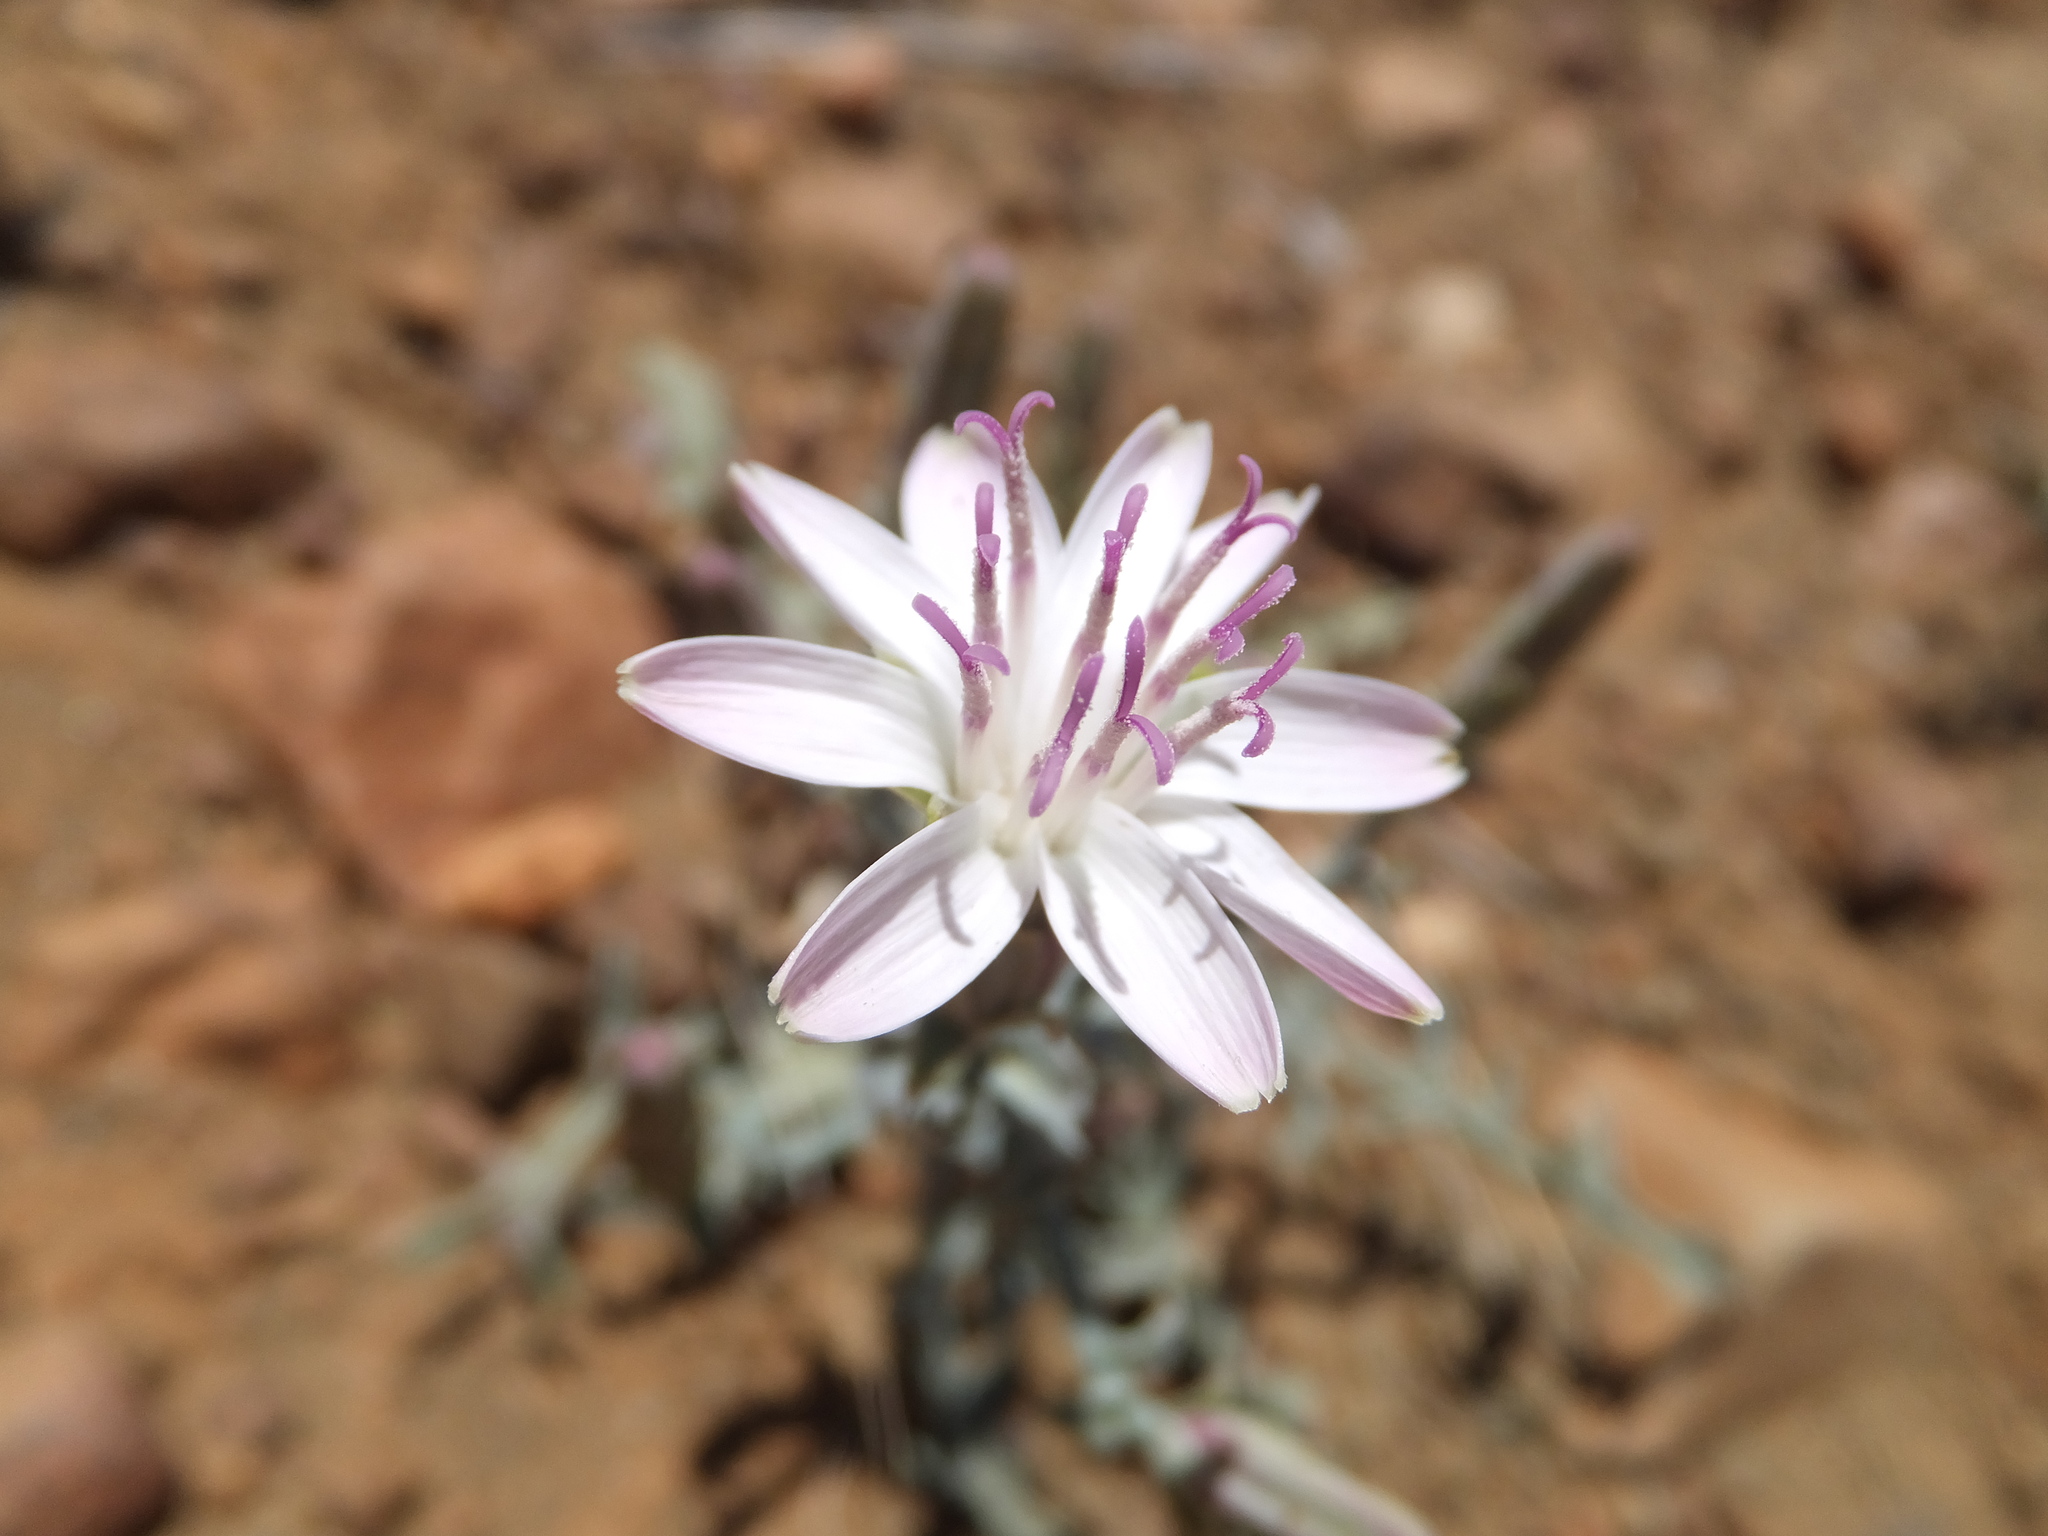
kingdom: Plantae
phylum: Tracheophyta
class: Magnoliopsida
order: Asterales
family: Asteraceae
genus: Stephanomeria
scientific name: Stephanomeria parryi
